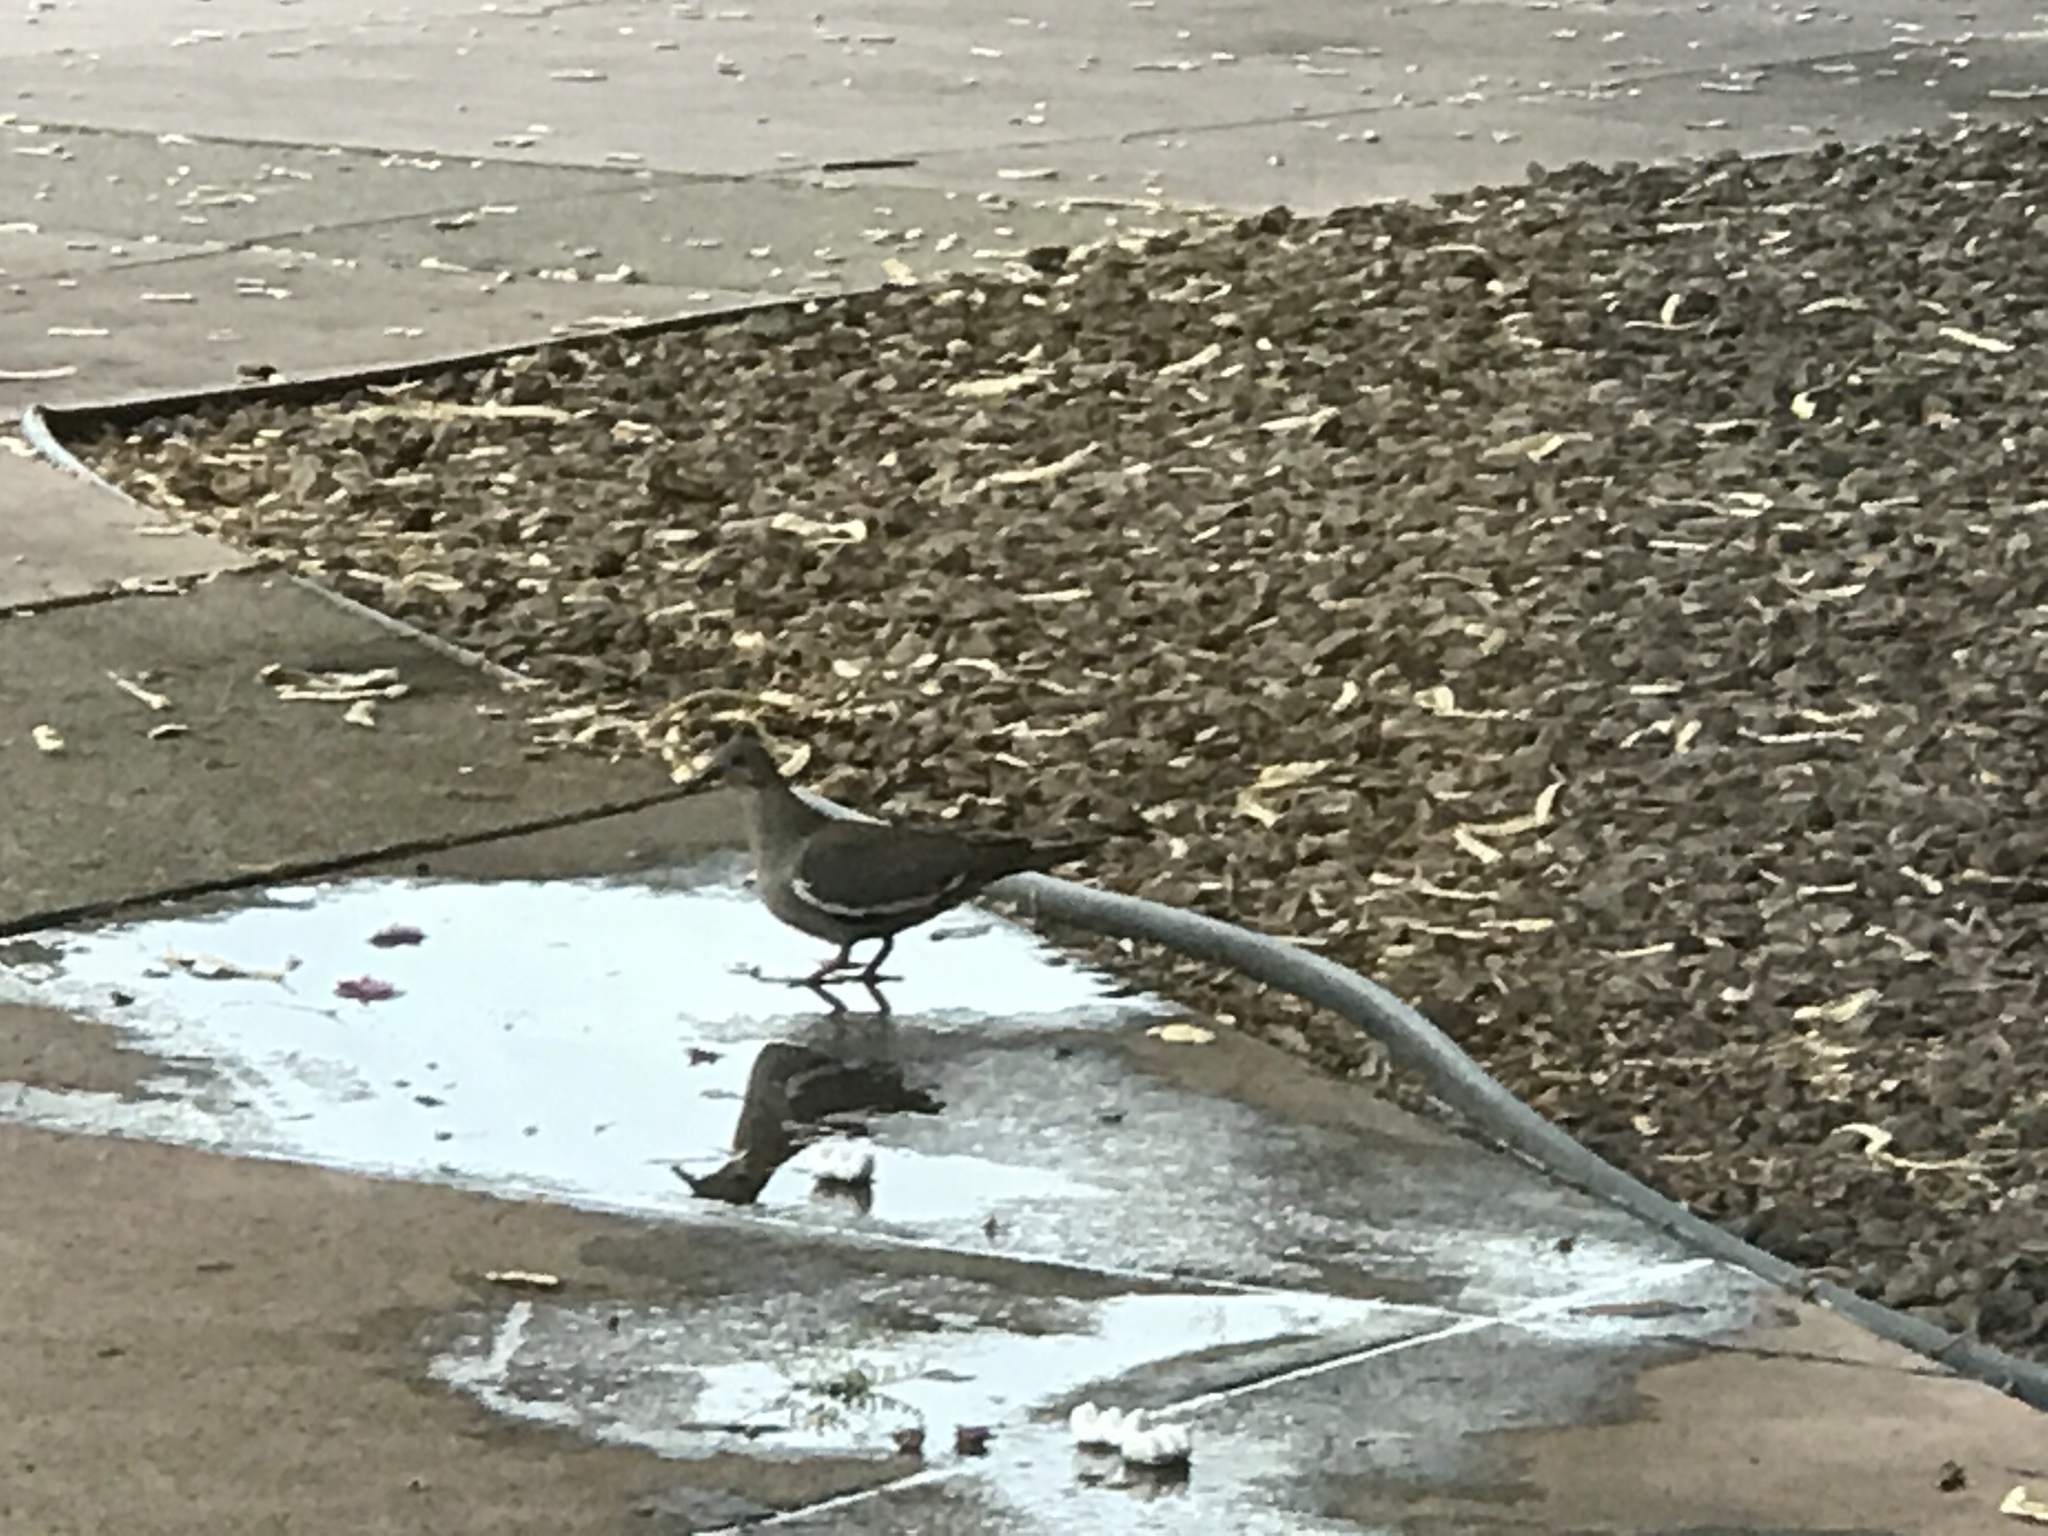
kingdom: Animalia
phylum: Chordata
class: Aves
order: Columbiformes
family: Columbidae
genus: Zenaida
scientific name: Zenaida asiatica
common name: White-winged dove
